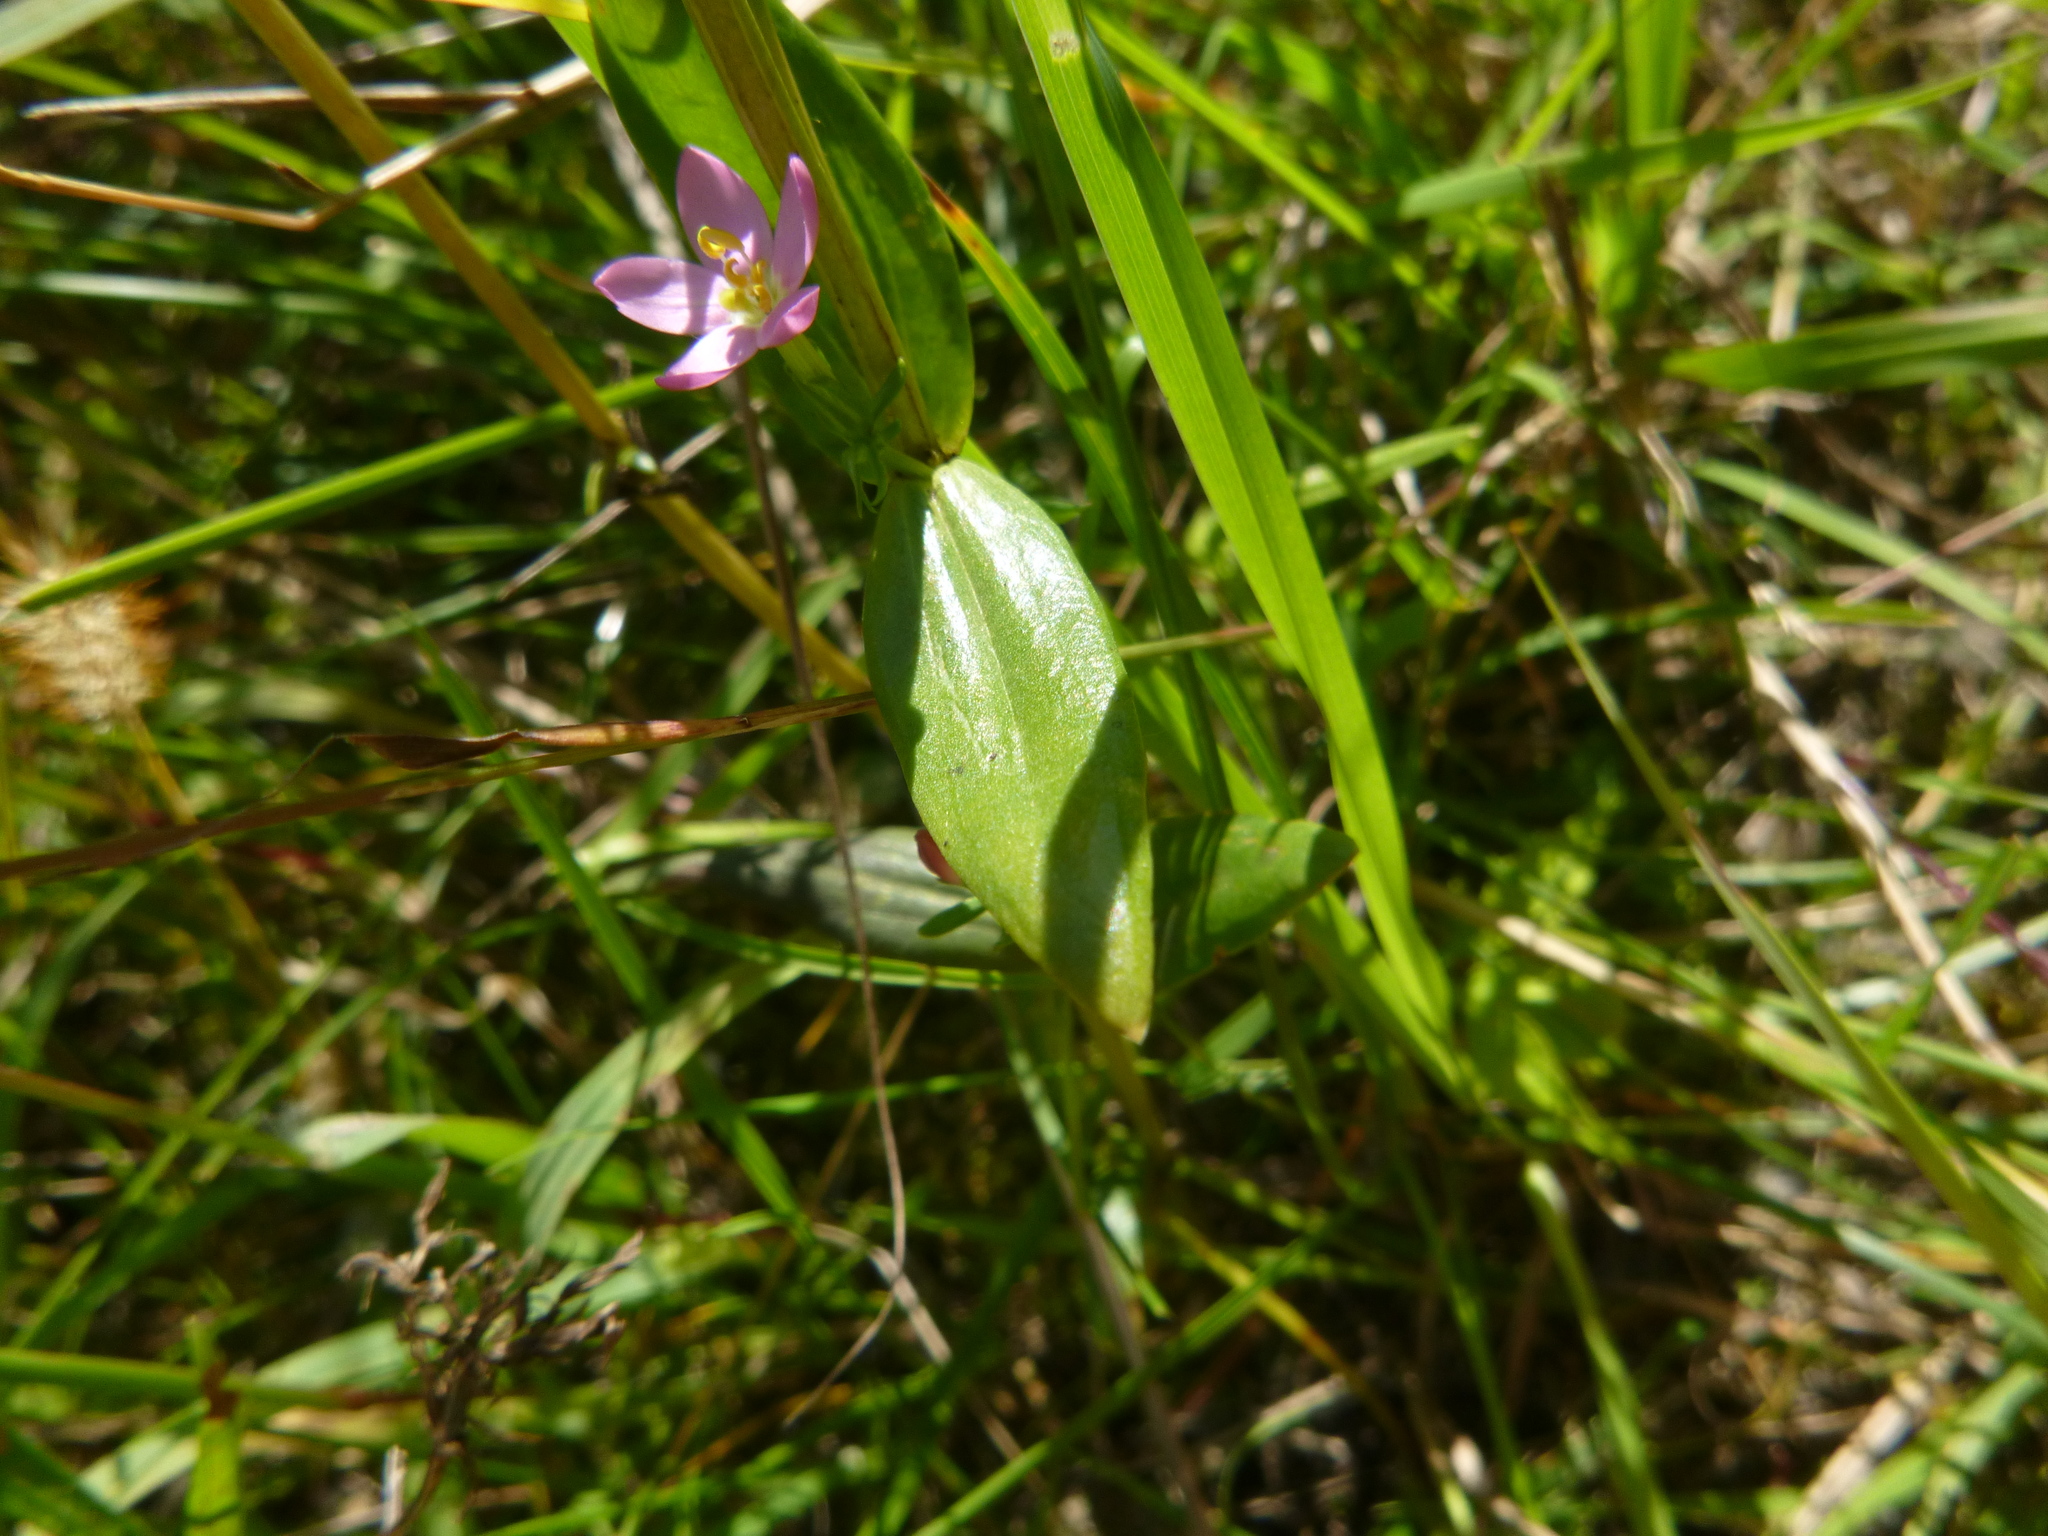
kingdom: Plantae
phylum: Tracheophyta
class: Magnoliopsida
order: Gentianales
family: Gentianaceae
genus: Centaurium
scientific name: Centaurium erythraea
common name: Common centaury
